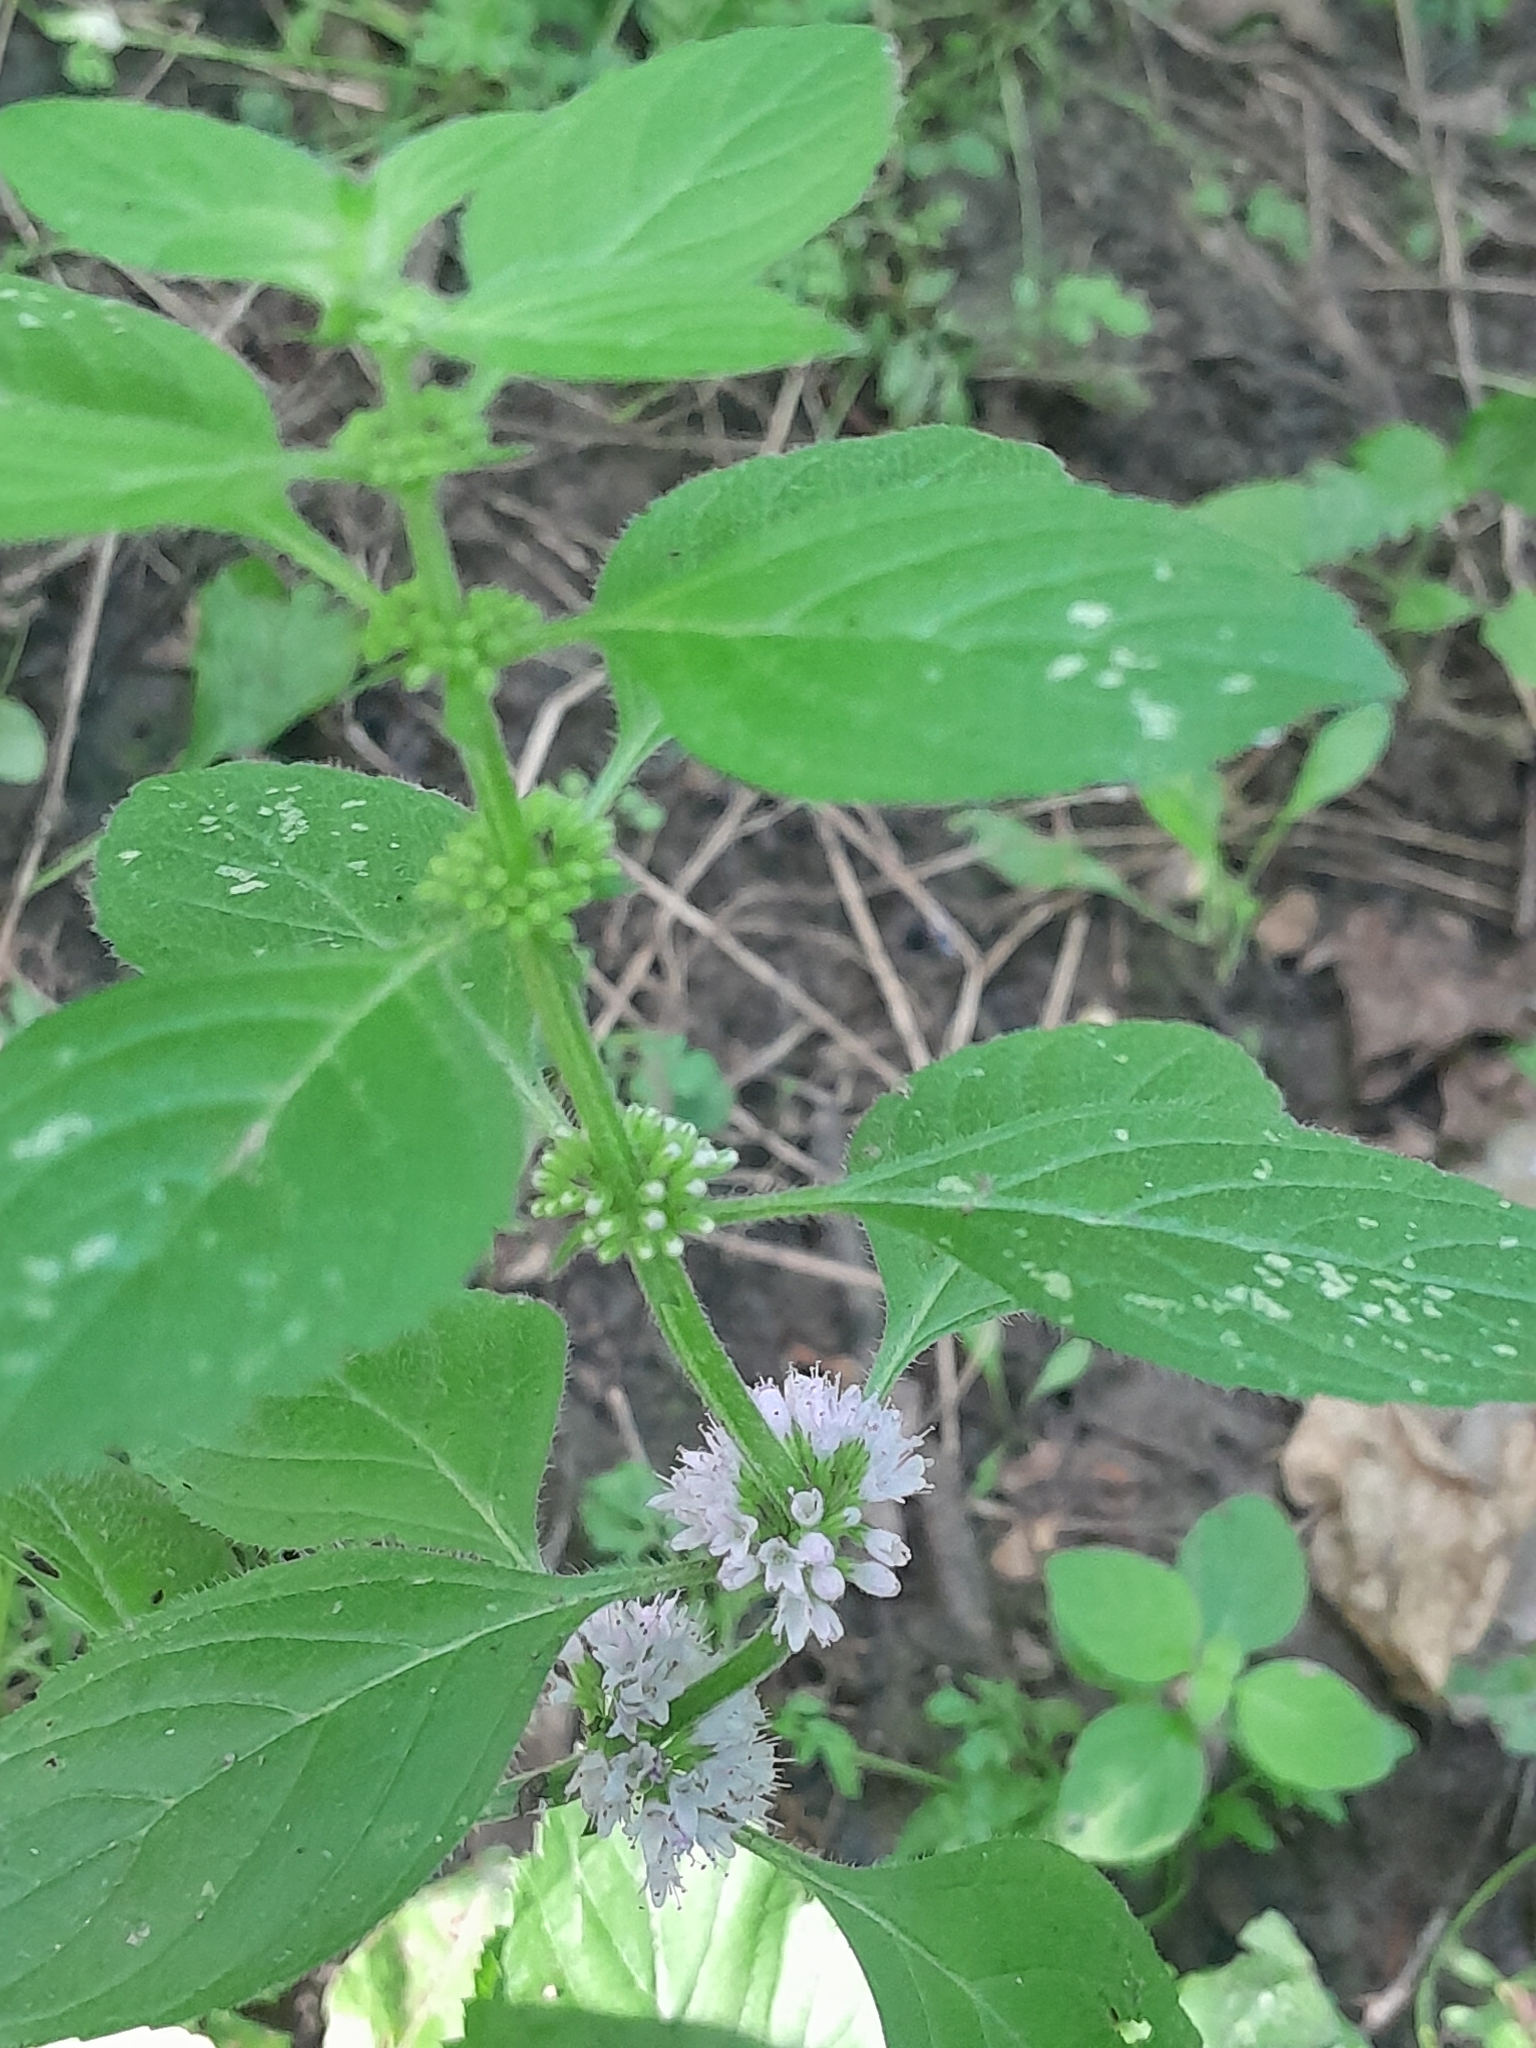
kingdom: Plantae
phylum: Tracheophyta
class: Magnoliopsida
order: Lamiales
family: Lamiaceae
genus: Mentha
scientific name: Mentha arvensis
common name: Corn mint
